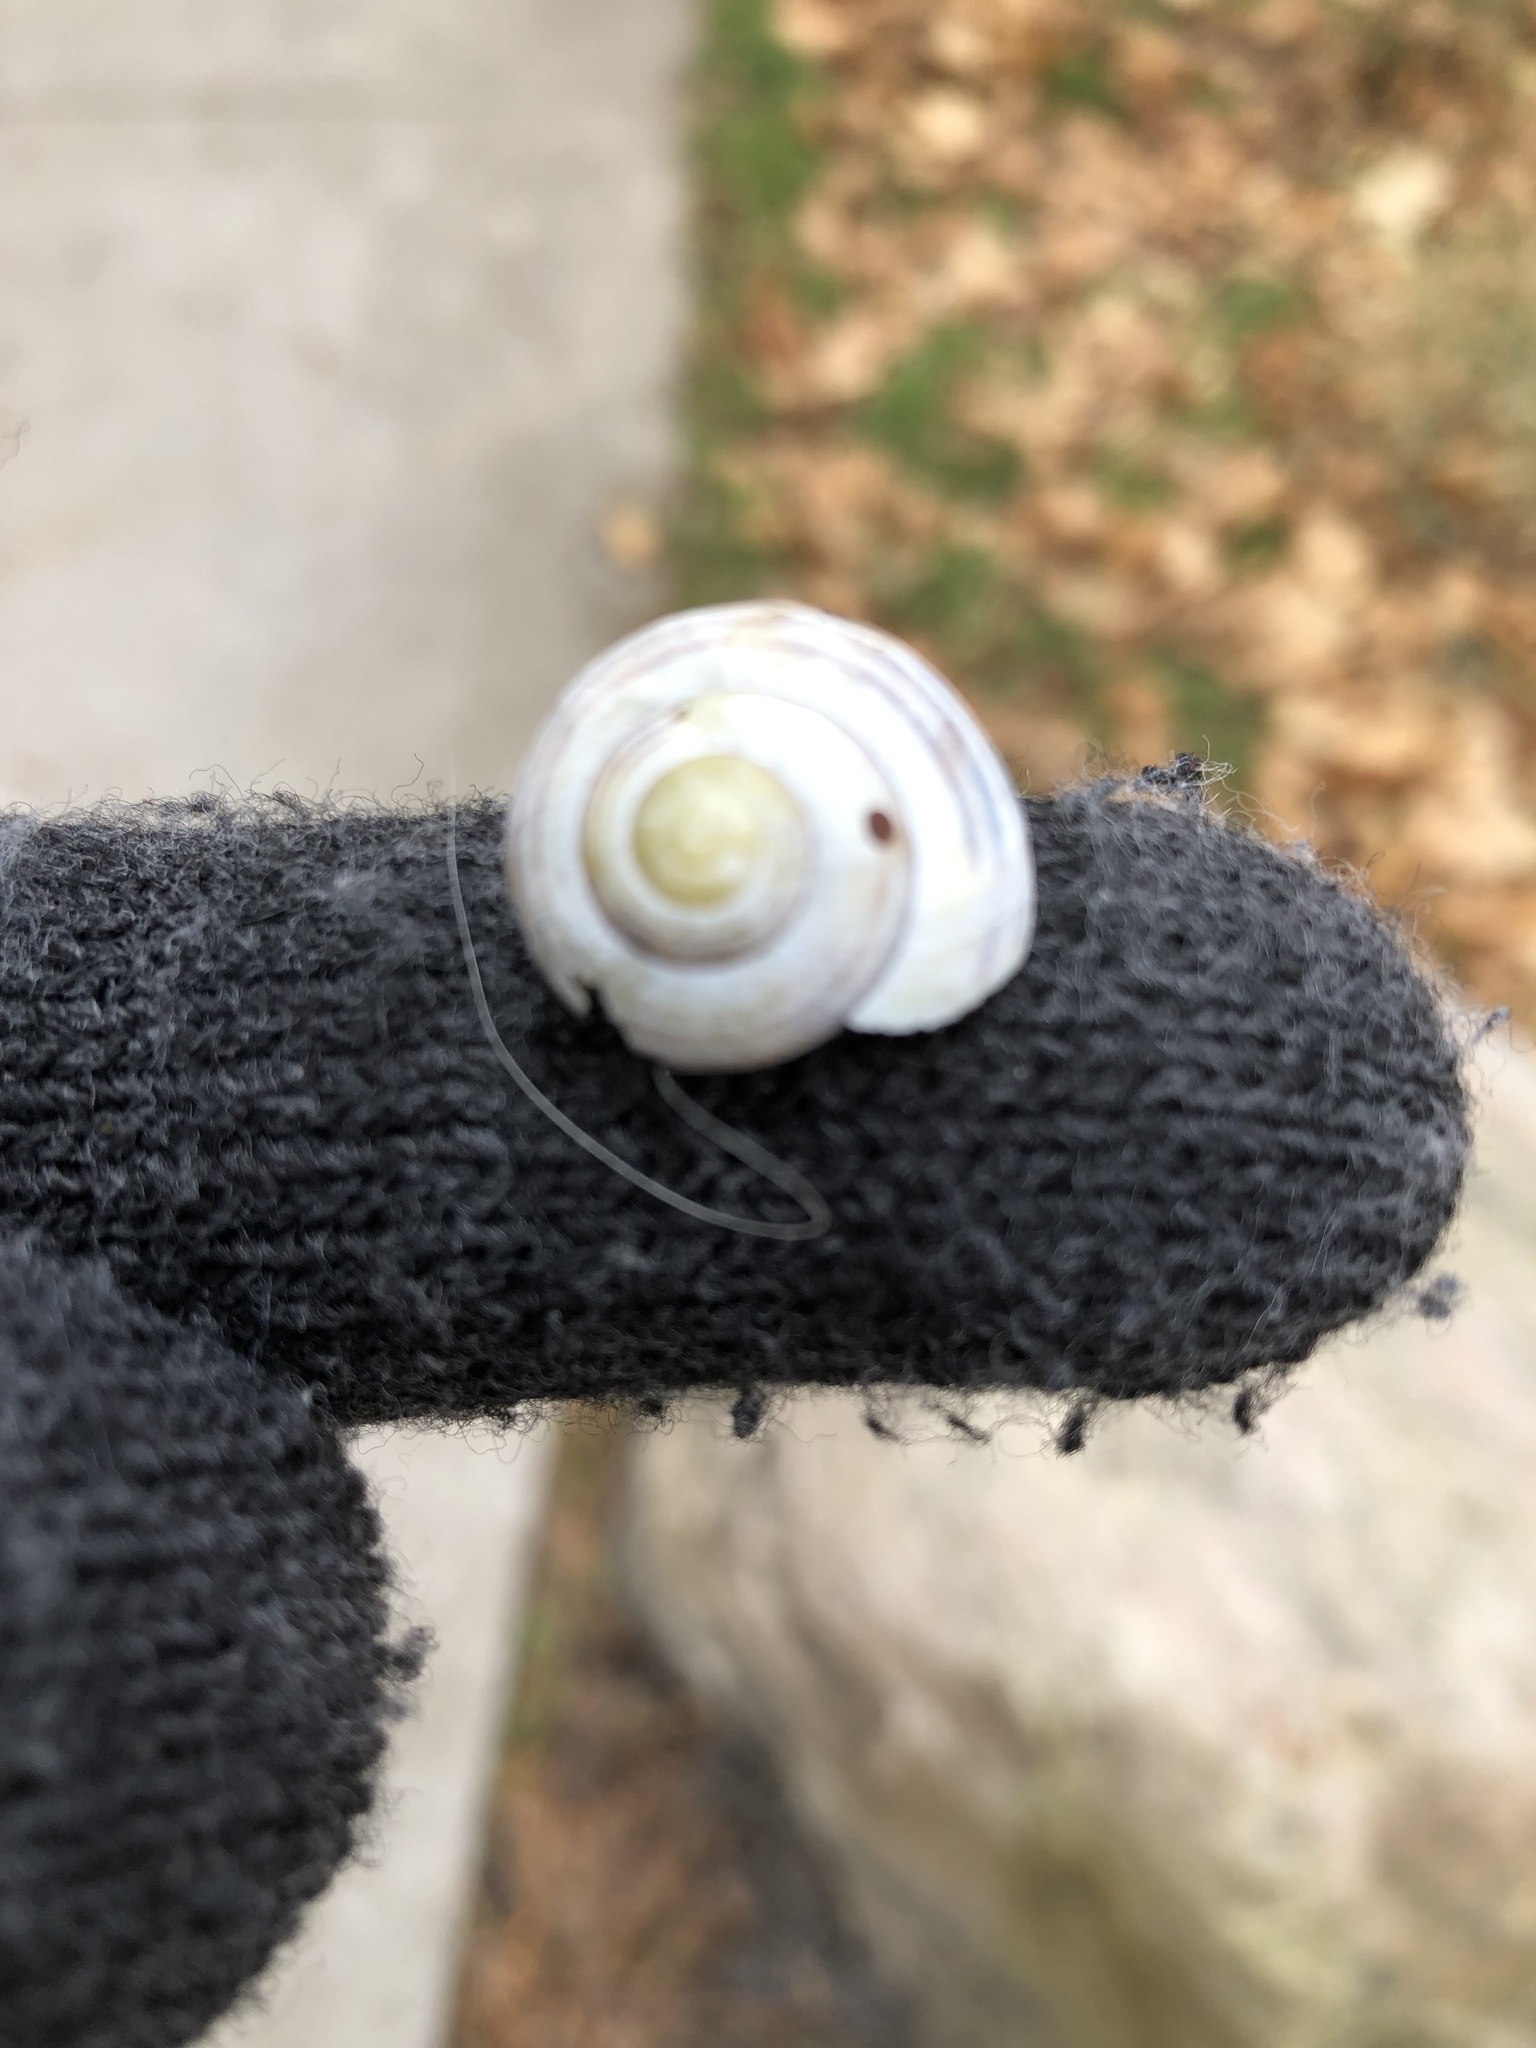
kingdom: Animalia
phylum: Mollusca
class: Gastropoda
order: Stylommatophora
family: Helicidae
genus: Cepaea
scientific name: Cepaea
